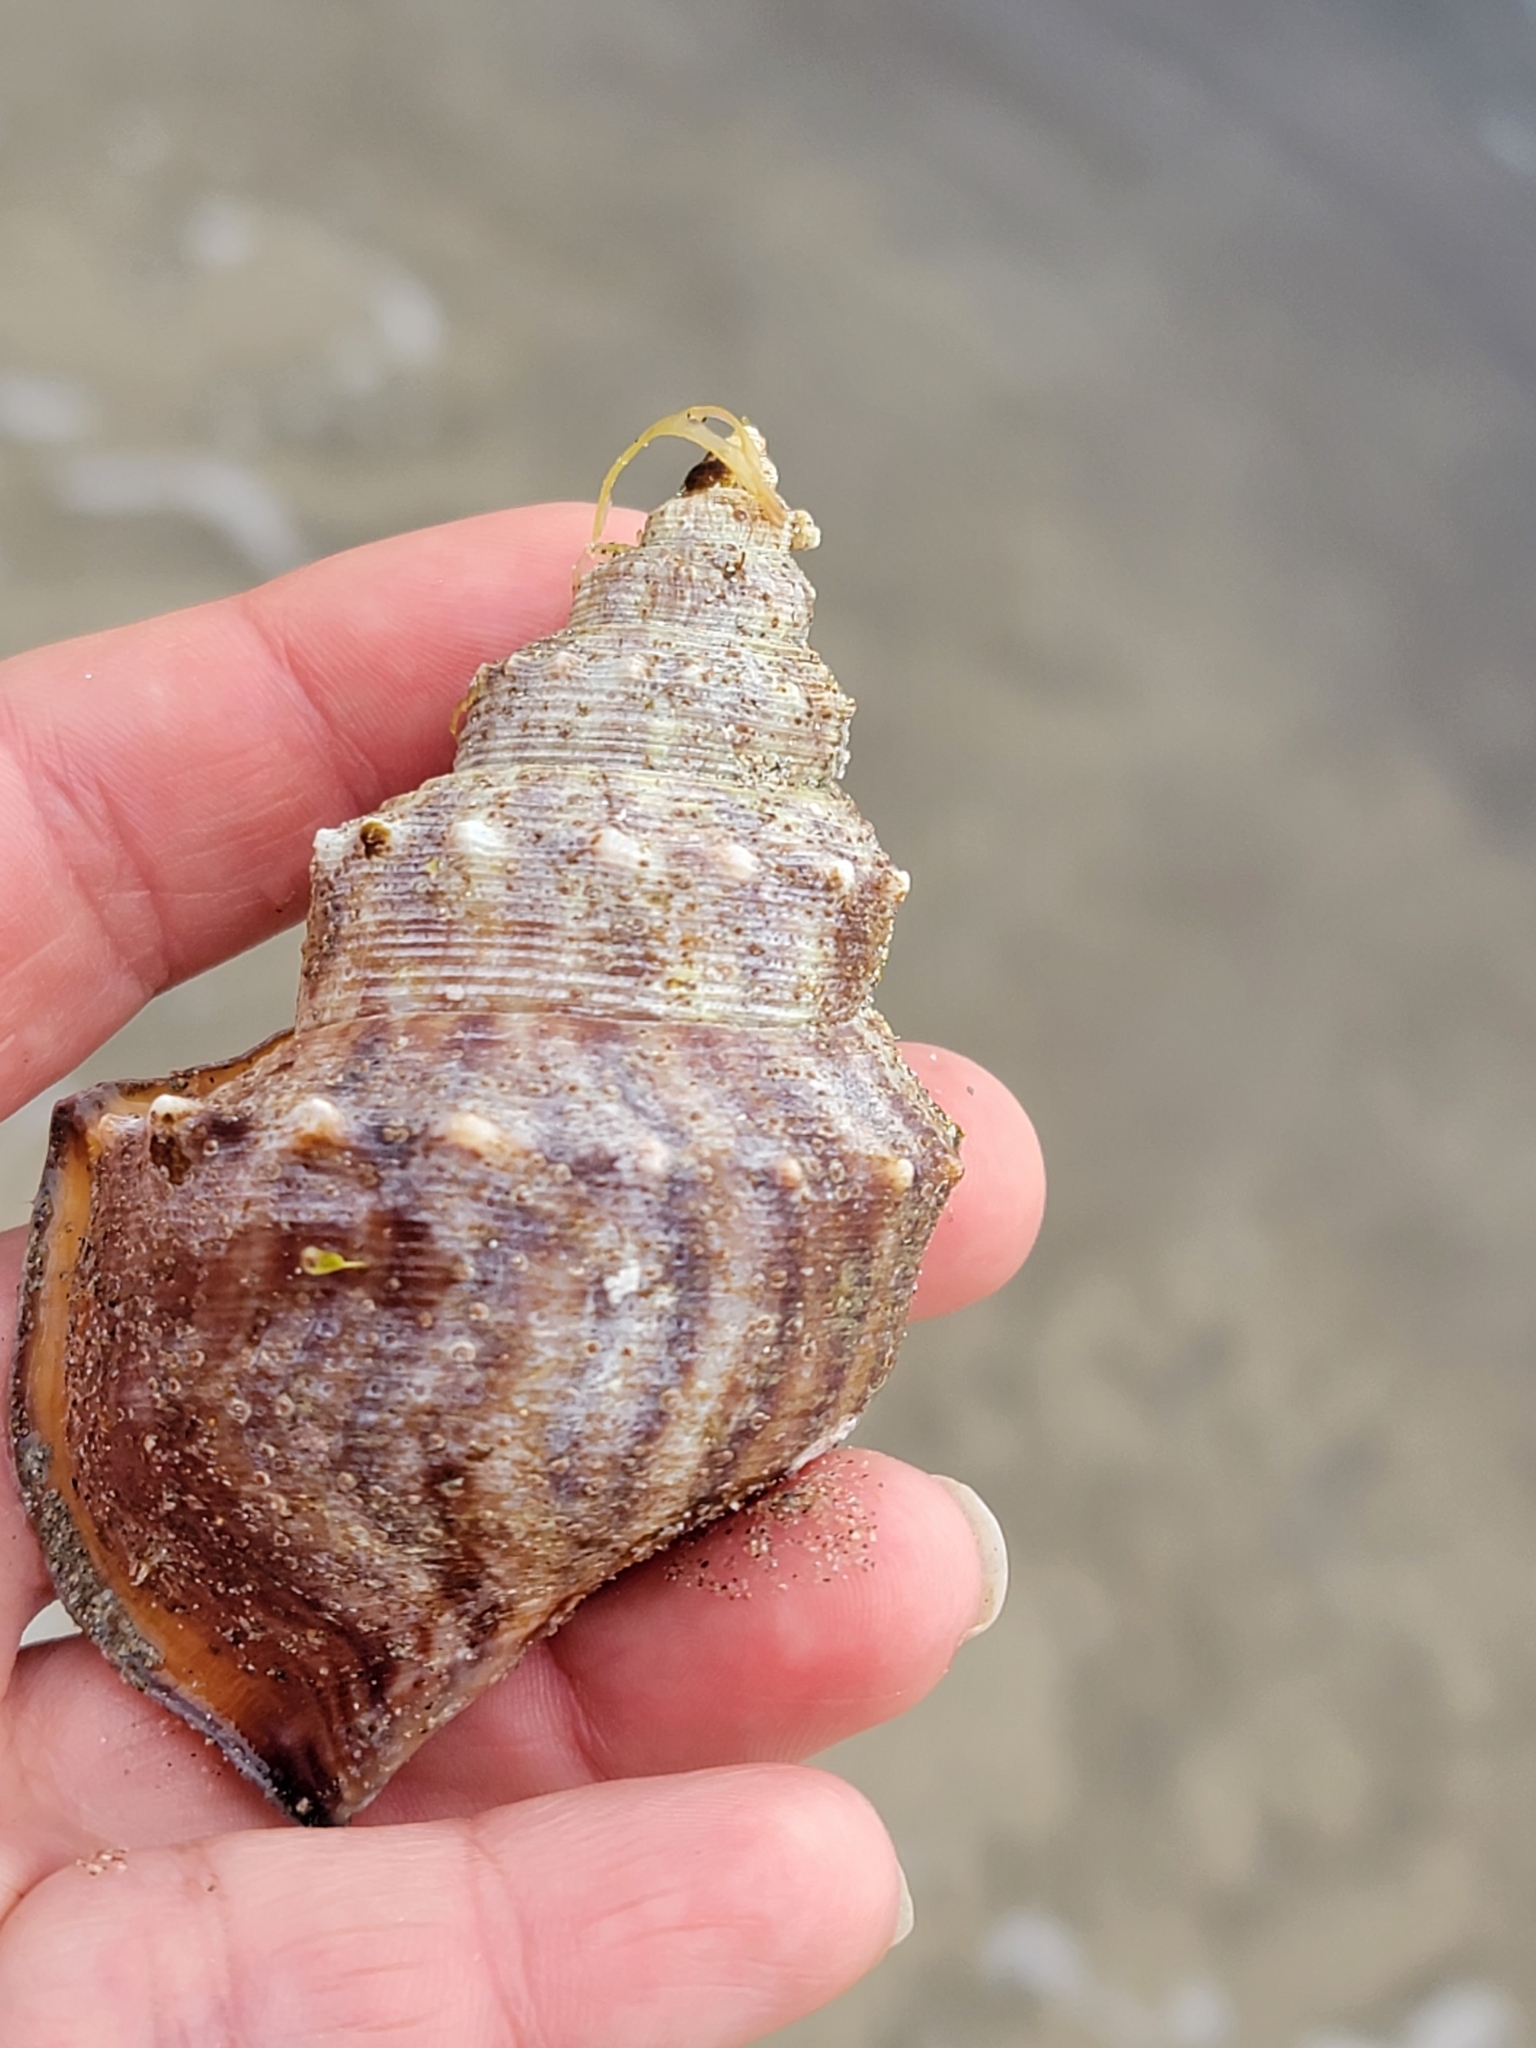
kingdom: Animalia
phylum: Mollusca
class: Gastropoda
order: Littorinimorpha
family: Struthiolariidae
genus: Struthiolaria
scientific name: Struthiolaria papulosa
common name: Large ostrich foot
